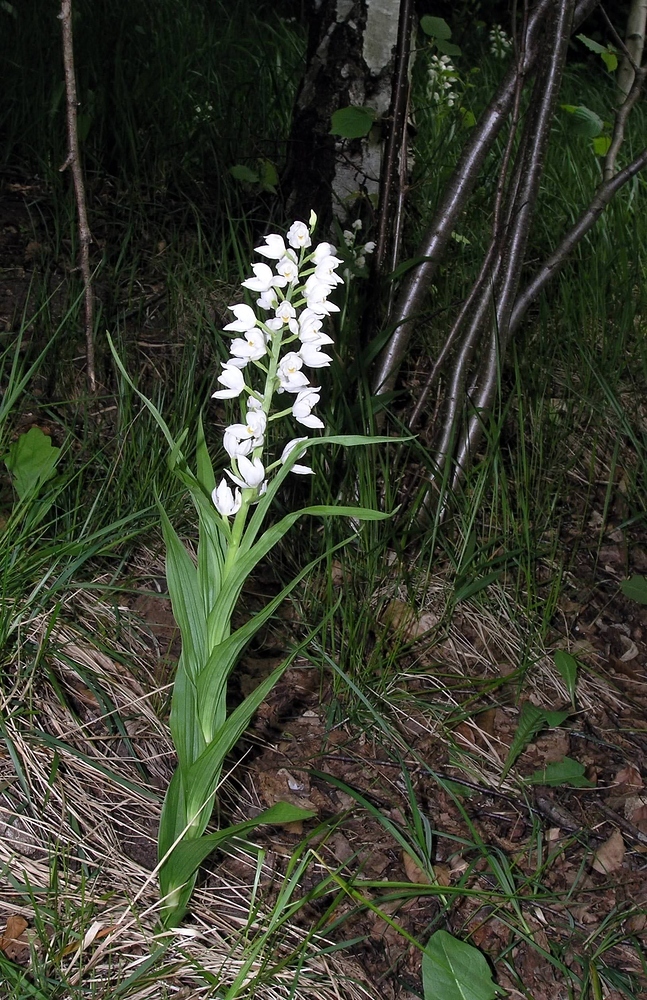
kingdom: Plantae
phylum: Tracheophyta
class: Liliopsida
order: Asparagales
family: Orchidaceae
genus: Cephalanthera
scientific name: Cephalanthera longifolia
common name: Narrow-leaved helleborine
